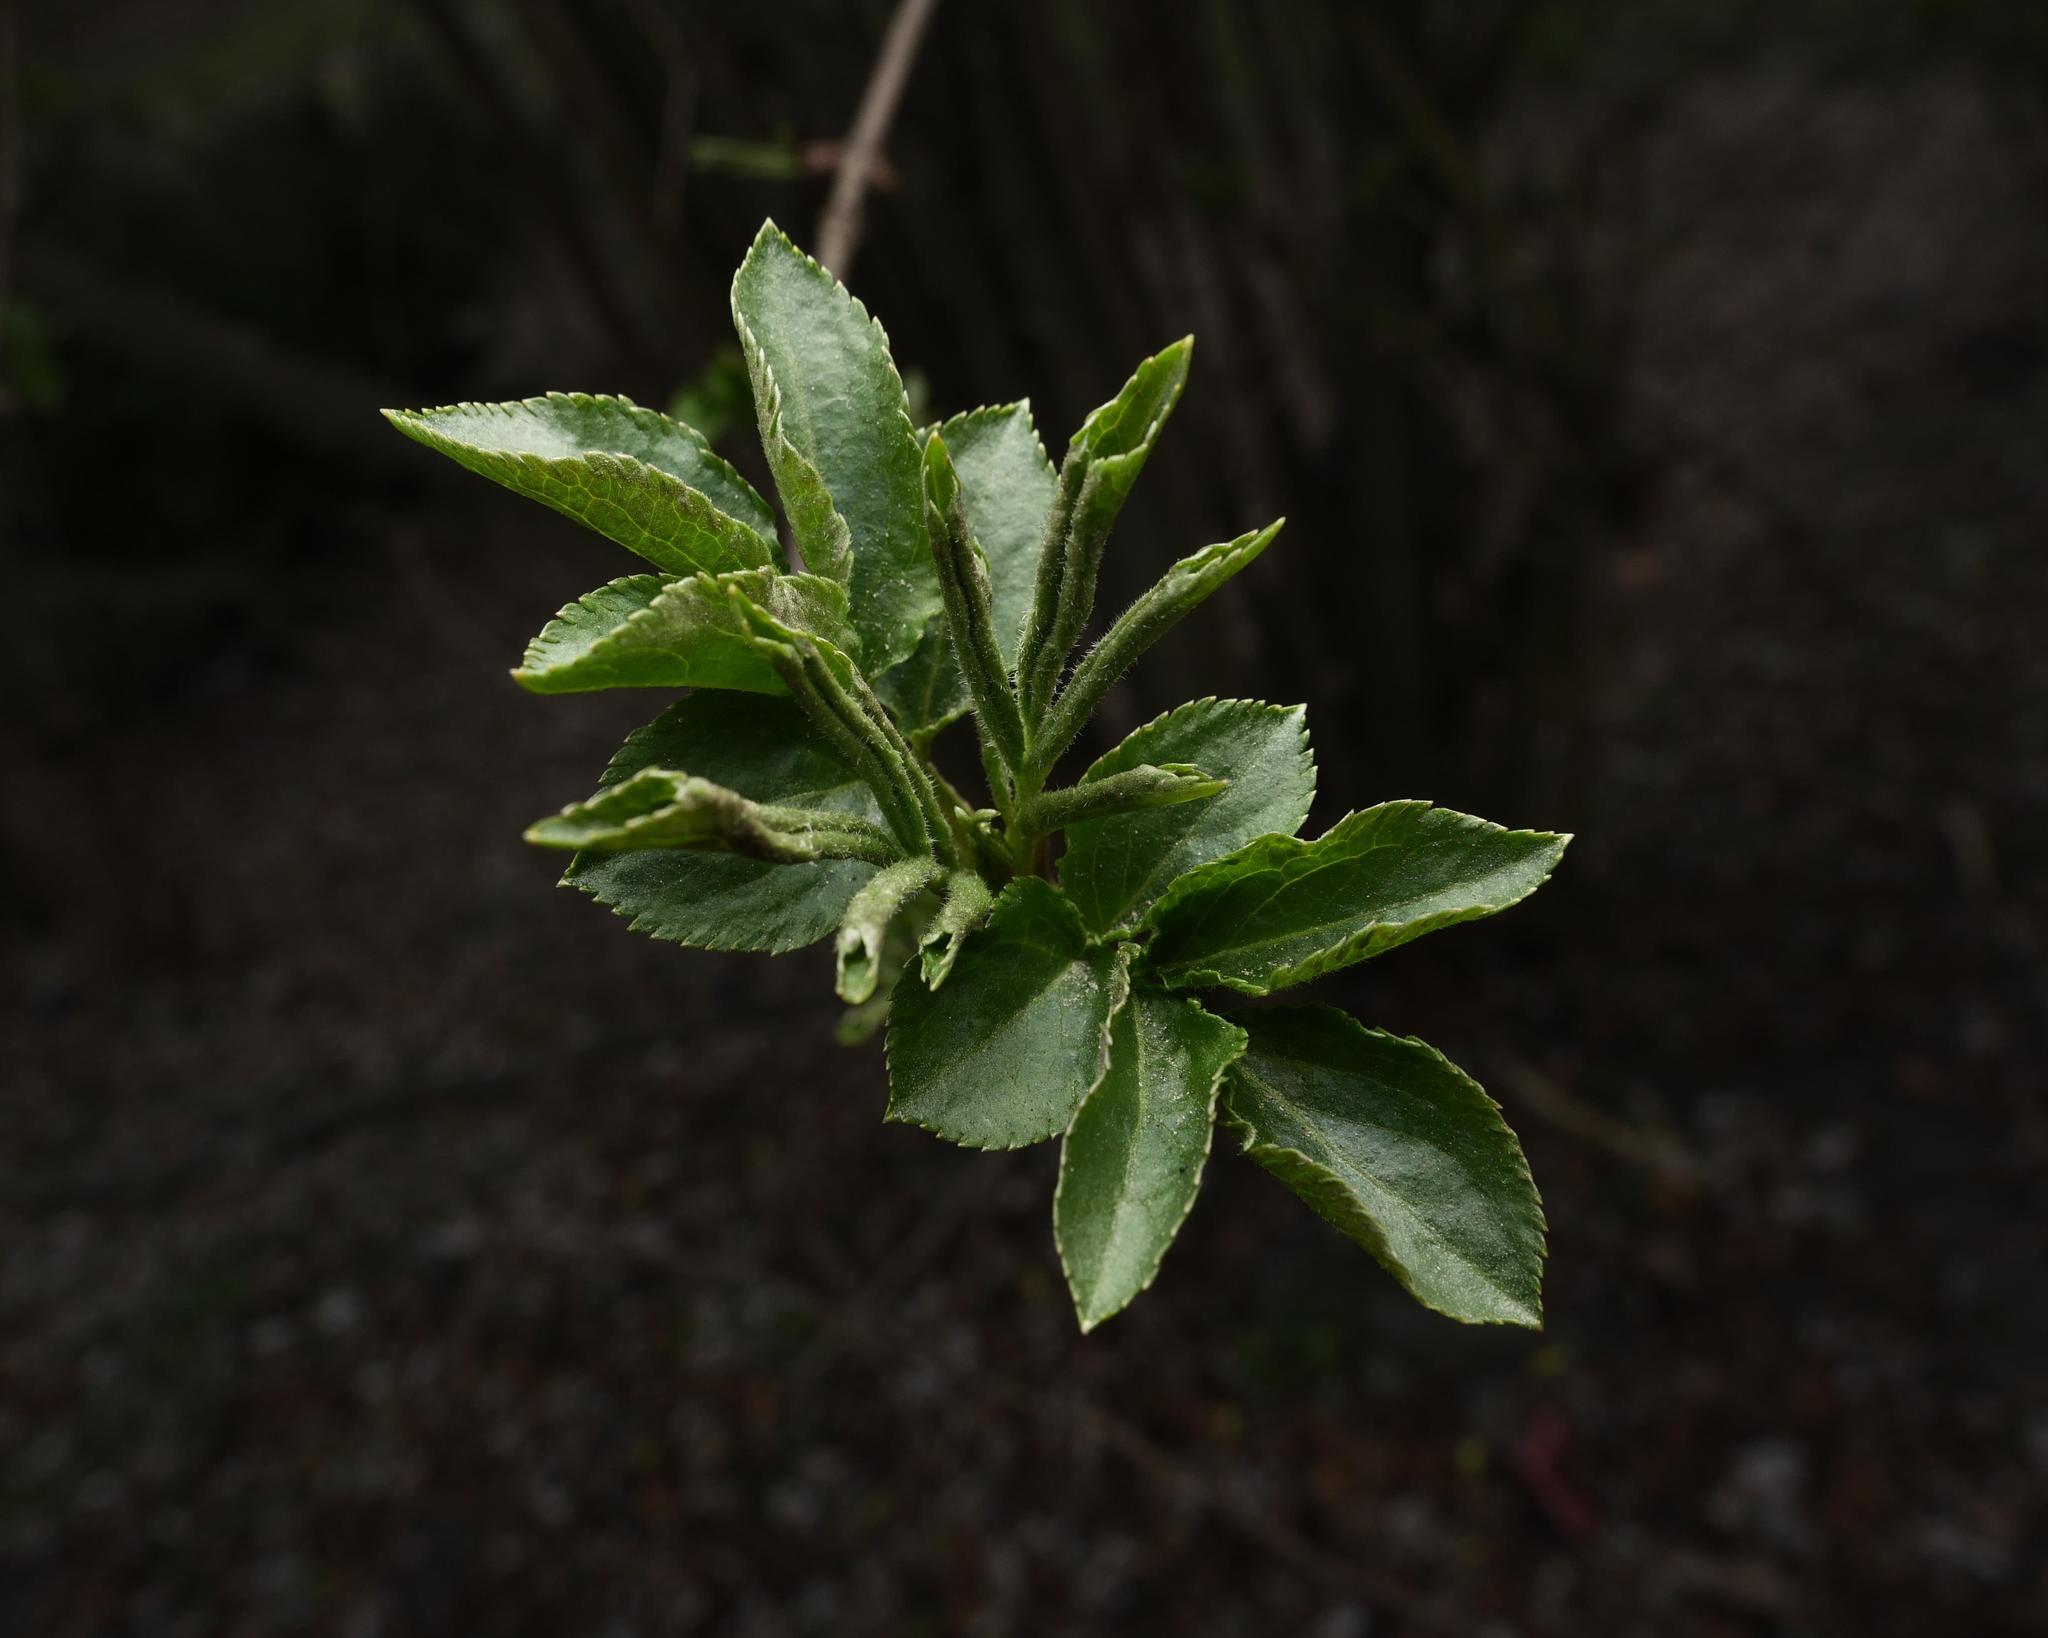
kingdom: Plantae
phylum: Tracheophyta
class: Magnoliopsida
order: Dipsacales
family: Viburnaceae
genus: Sambucus
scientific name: Sambucus nigra
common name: Elder
